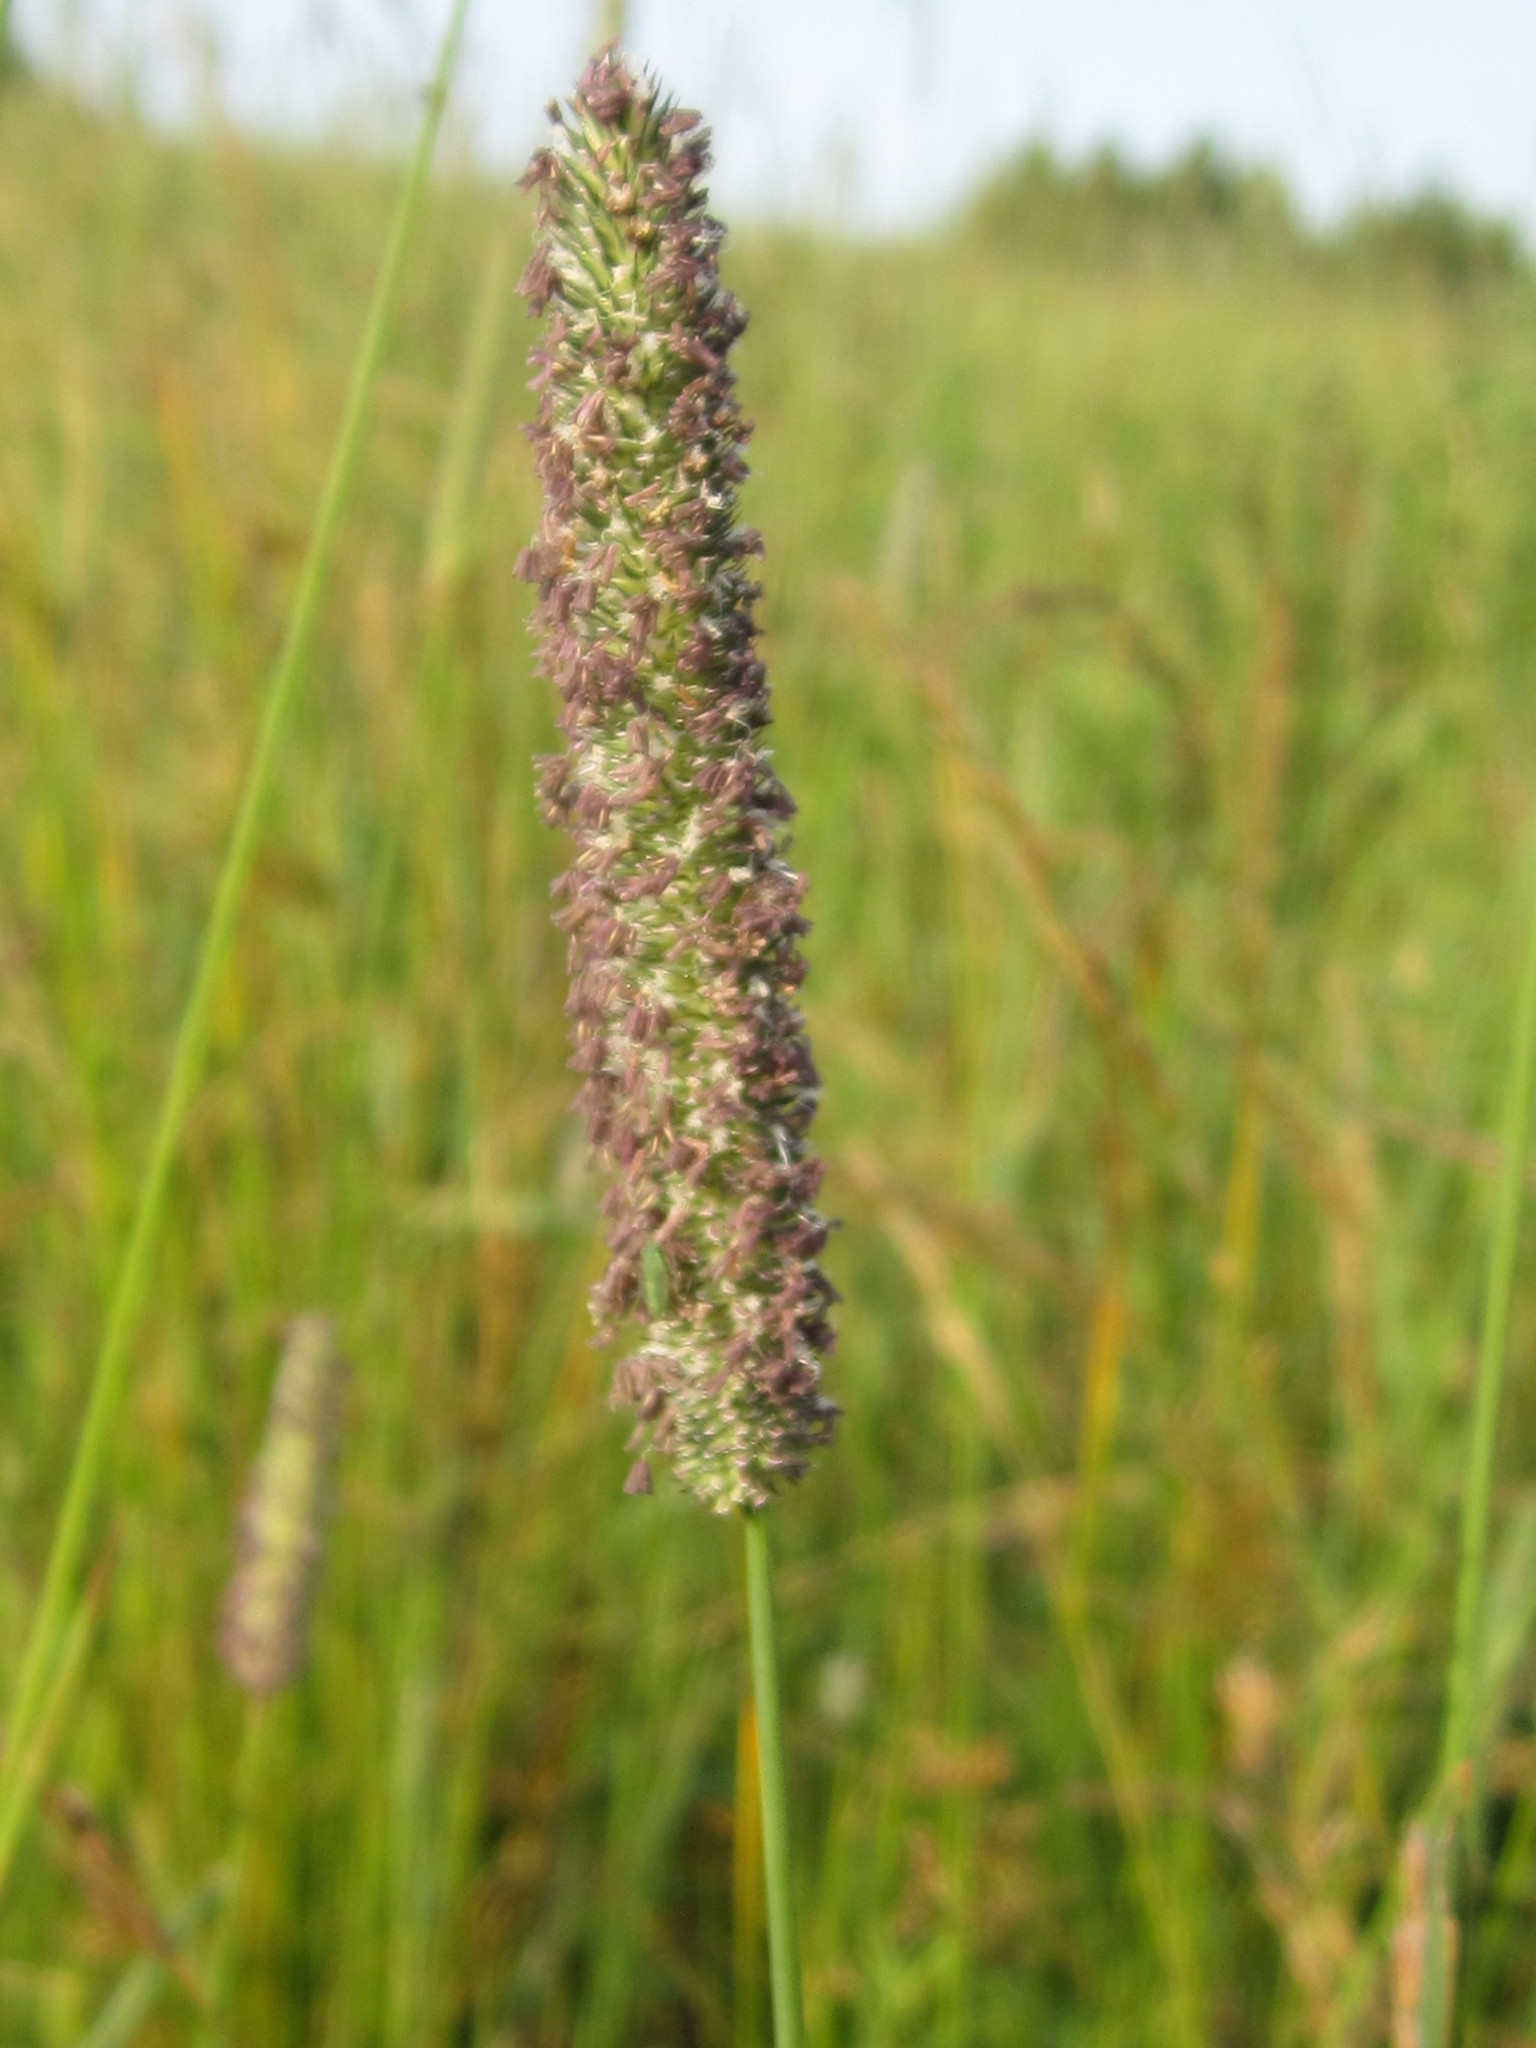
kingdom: Plantae
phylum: Tracheophyta
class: Liliopsida
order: Poales
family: Poaceae
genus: Phleum
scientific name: Phleum pratense
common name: Timothy grass
